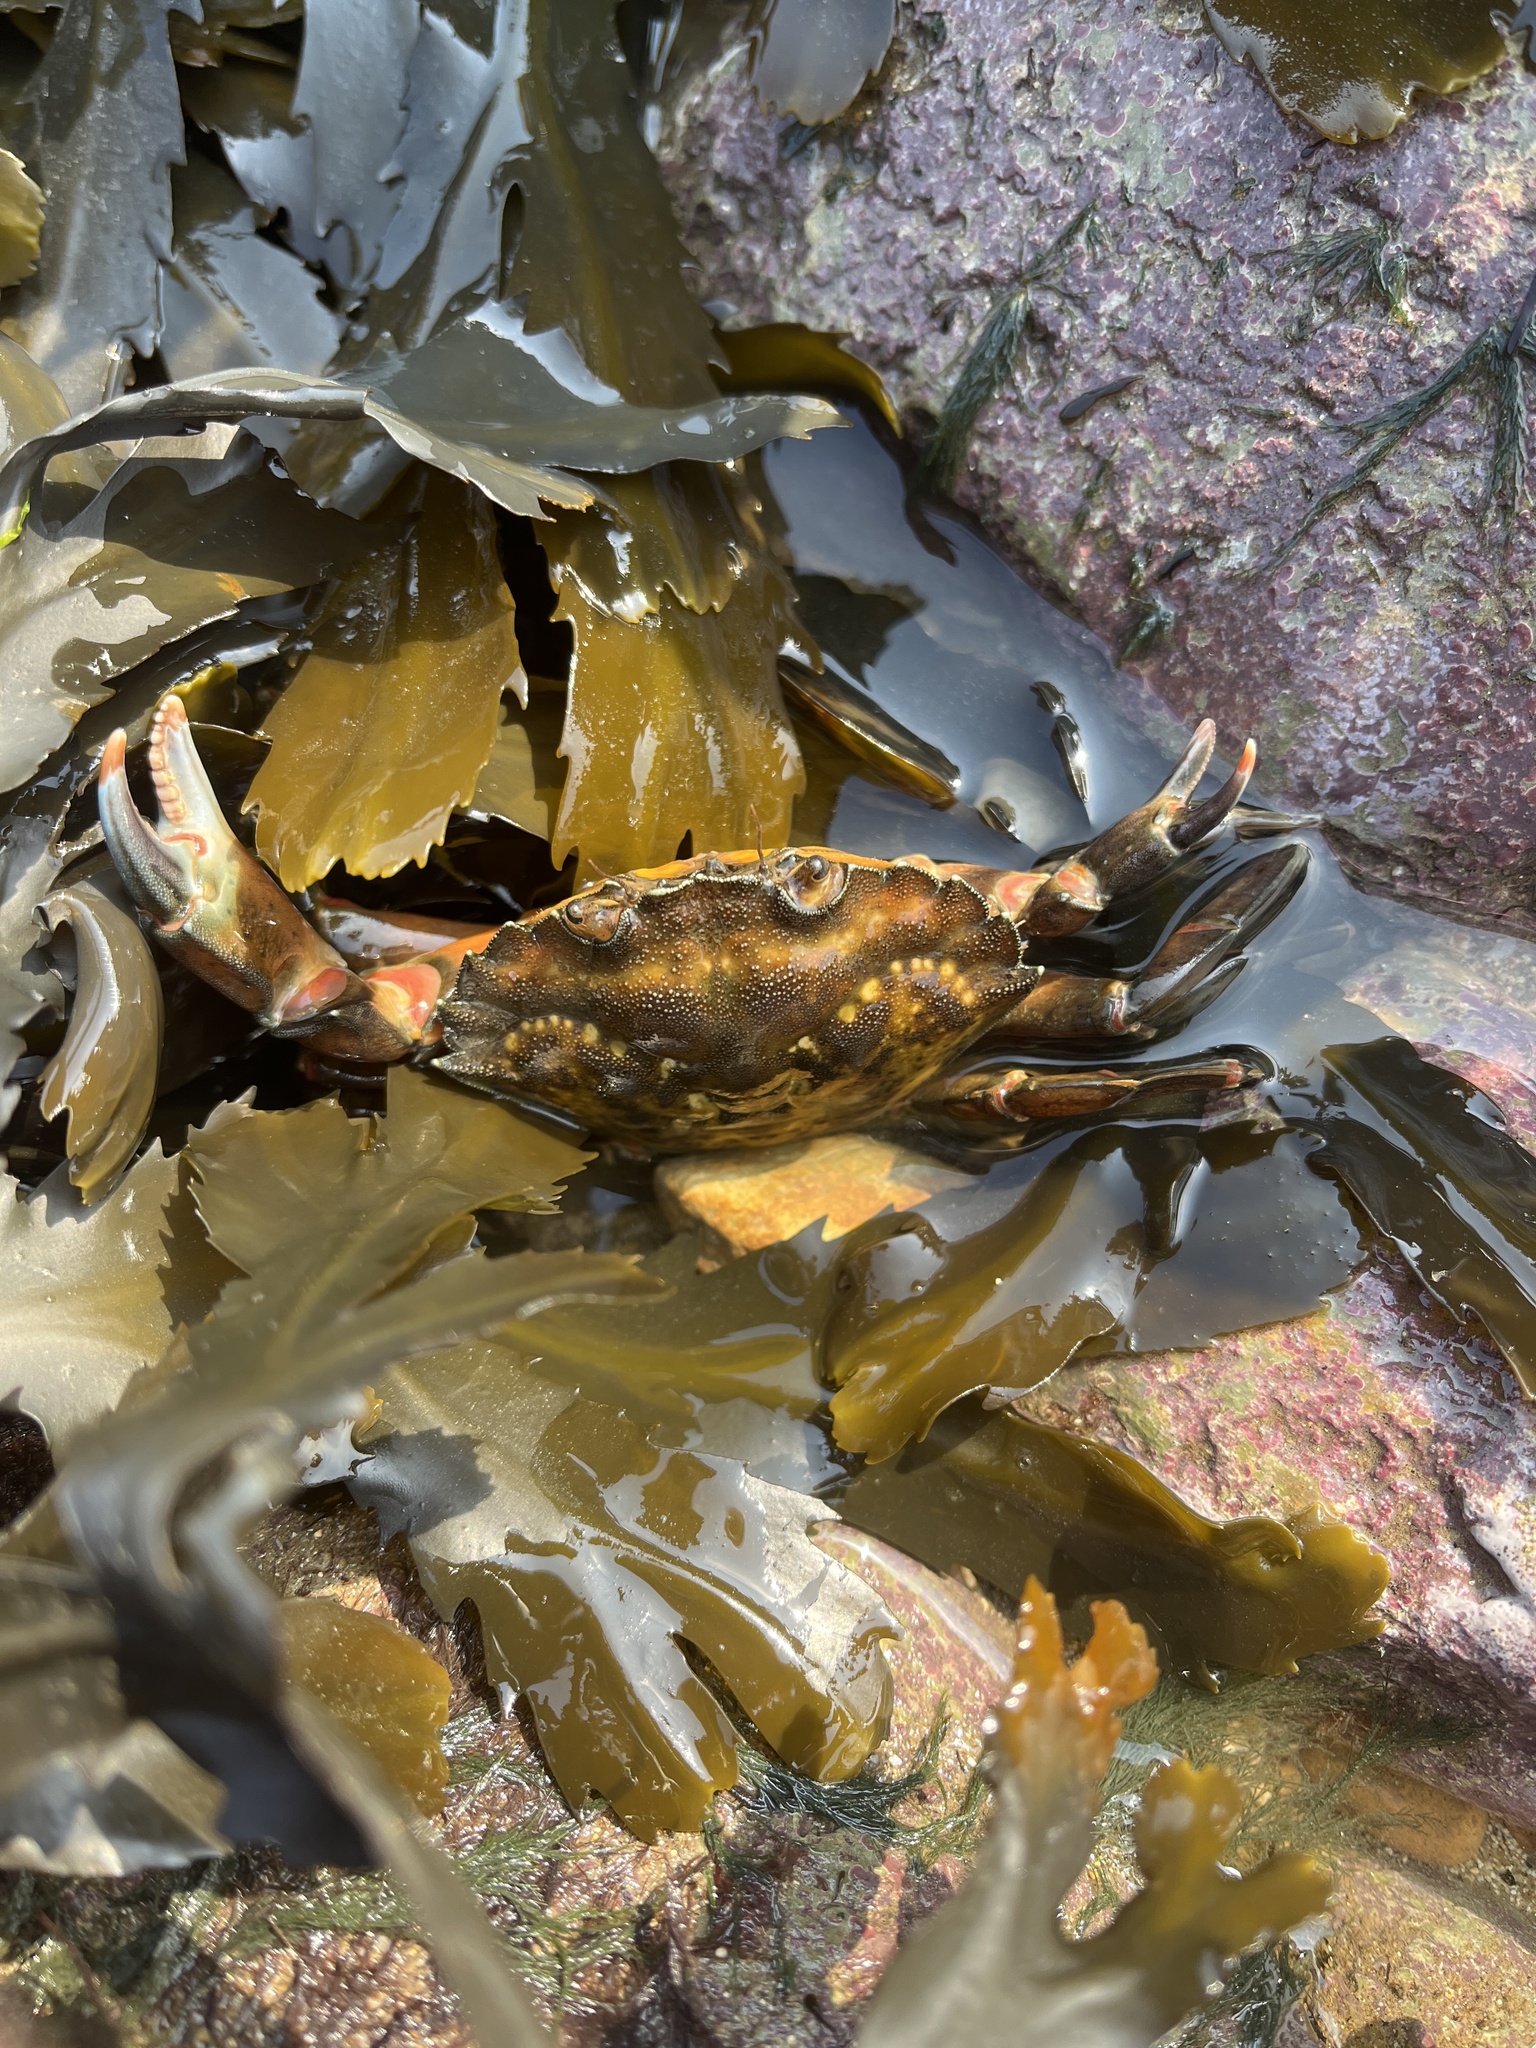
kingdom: Animalia
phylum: Arthropoda
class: Malacostraca
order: Decapoda
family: Carcinidae
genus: Carcinus
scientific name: Carcinus maenas
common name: European green crab
